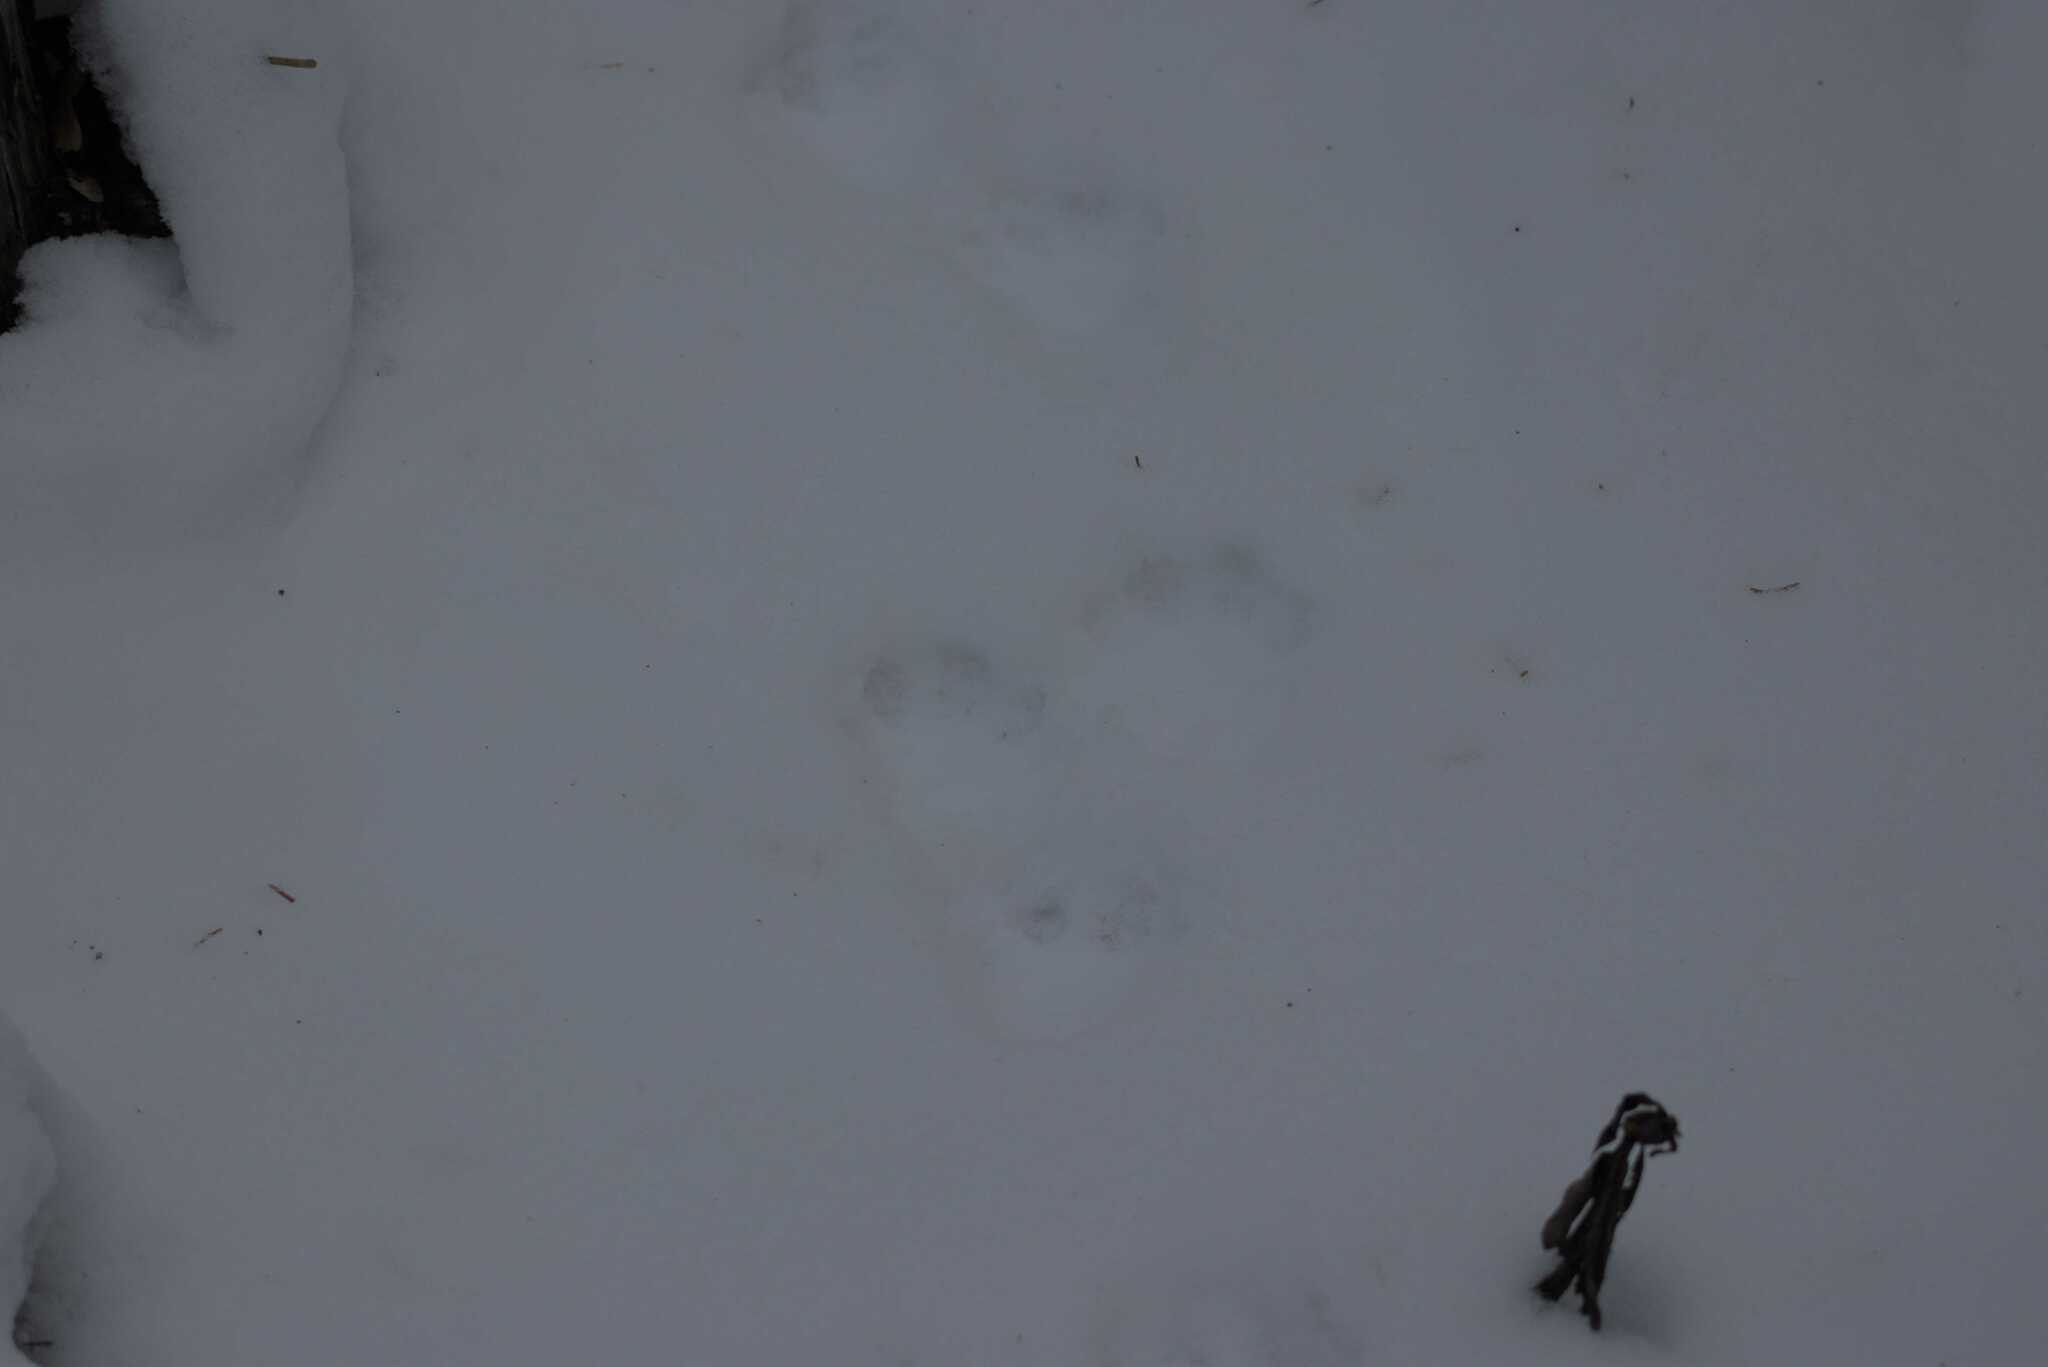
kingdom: Animalia
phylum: Chordata
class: Mammalia
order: Carnivora
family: Mustelidae
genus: Martes
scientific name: Martes americana
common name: American marten
